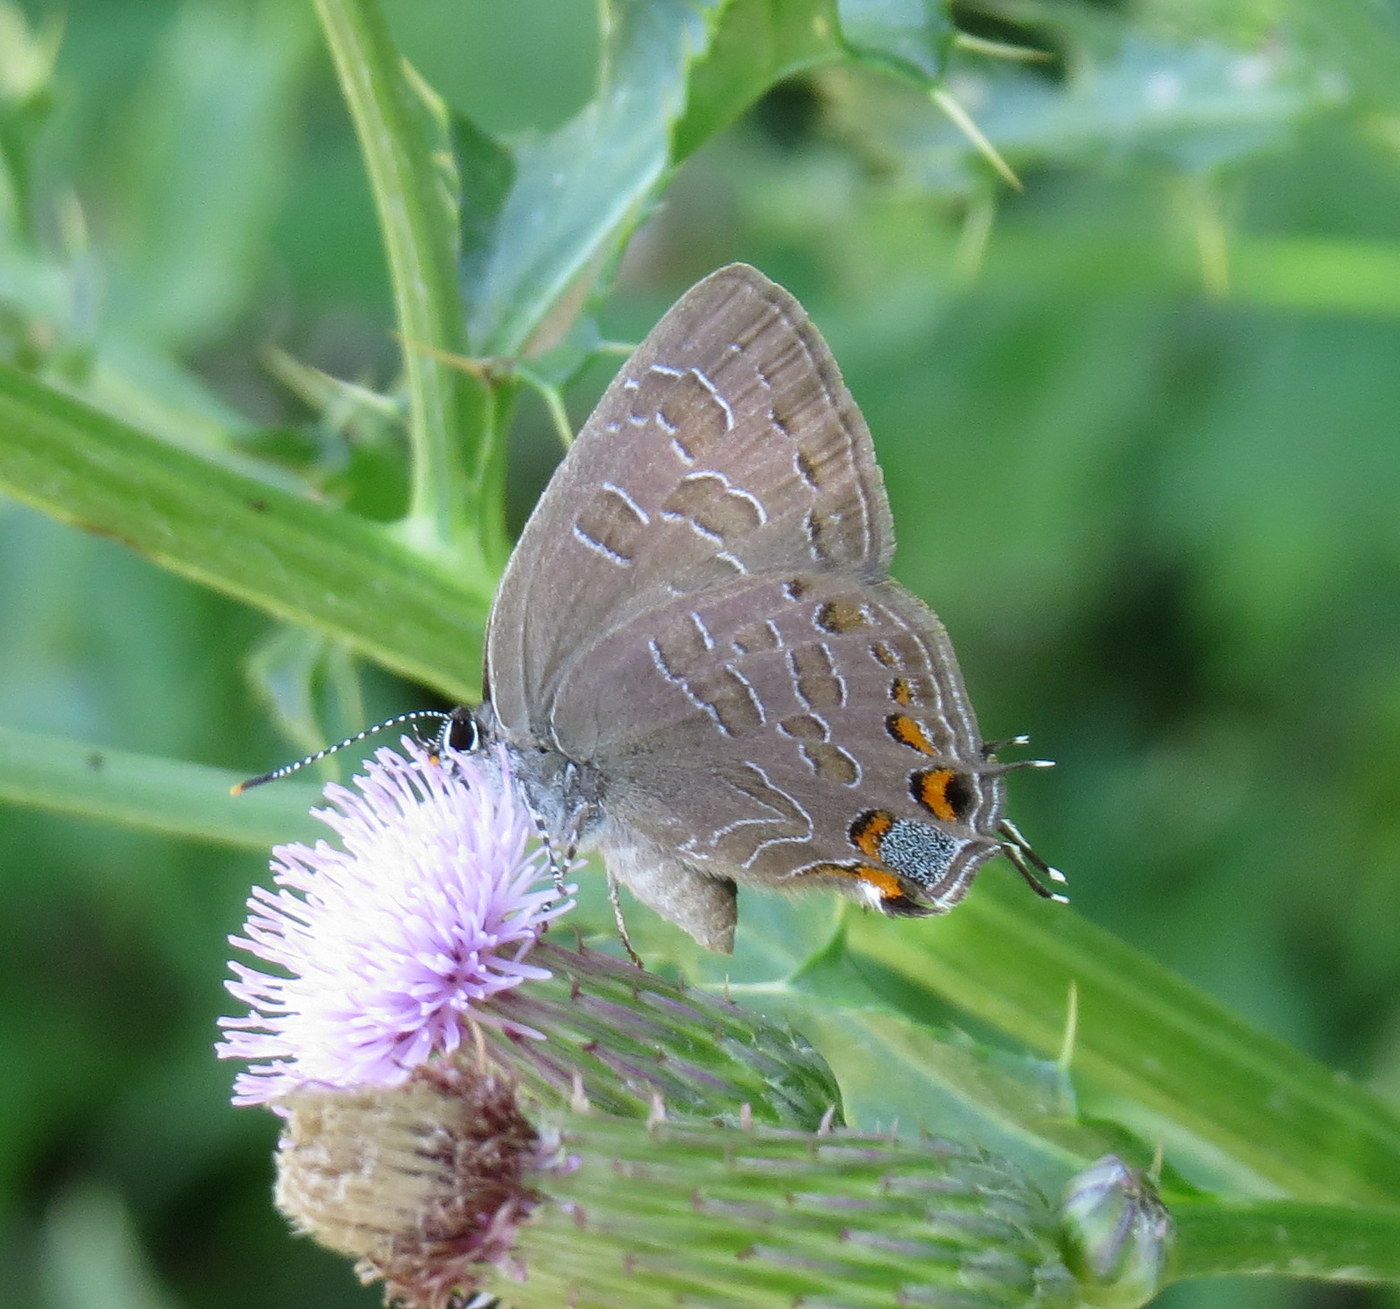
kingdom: Animalia
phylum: Arthropoda
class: Insecta
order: Lepidoptera
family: Lycaenidae
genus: Satyrium
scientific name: Satyrium liparops
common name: Striped hairstreak
